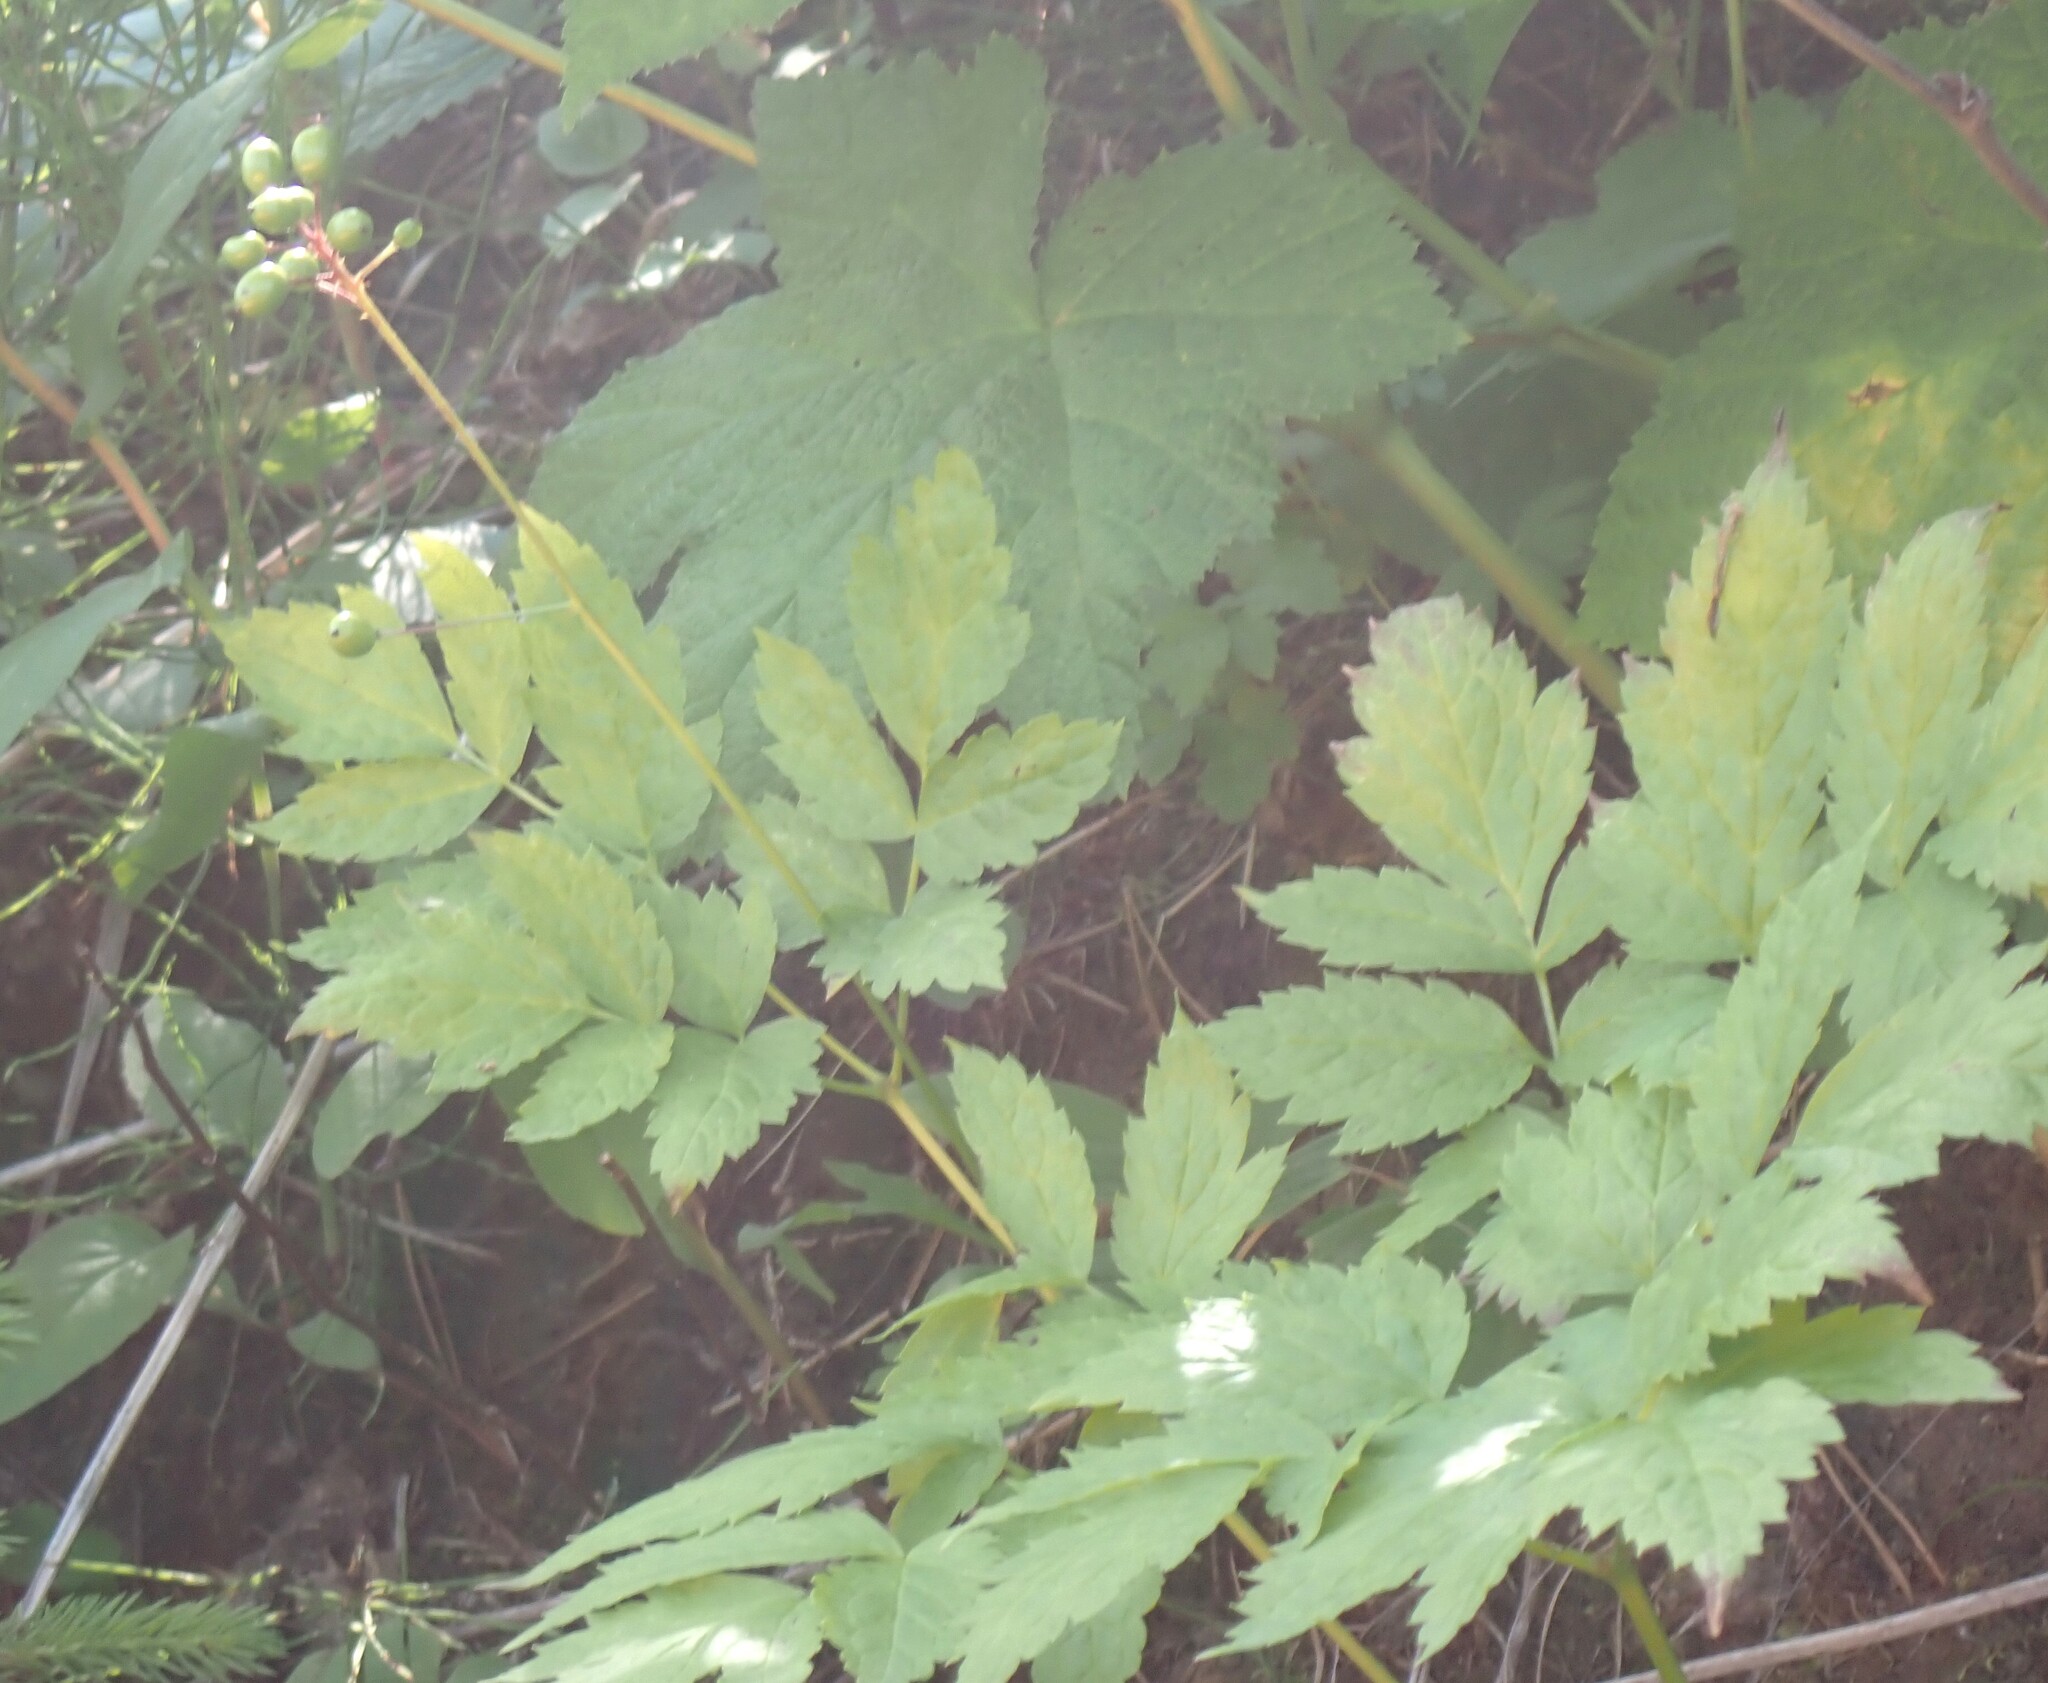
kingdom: Plantae
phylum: Tracheophyta
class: Magnoliopsida
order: Ranunculales
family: Ranunculaceae
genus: Actaea
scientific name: Actaea rubra
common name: Red baneberry
